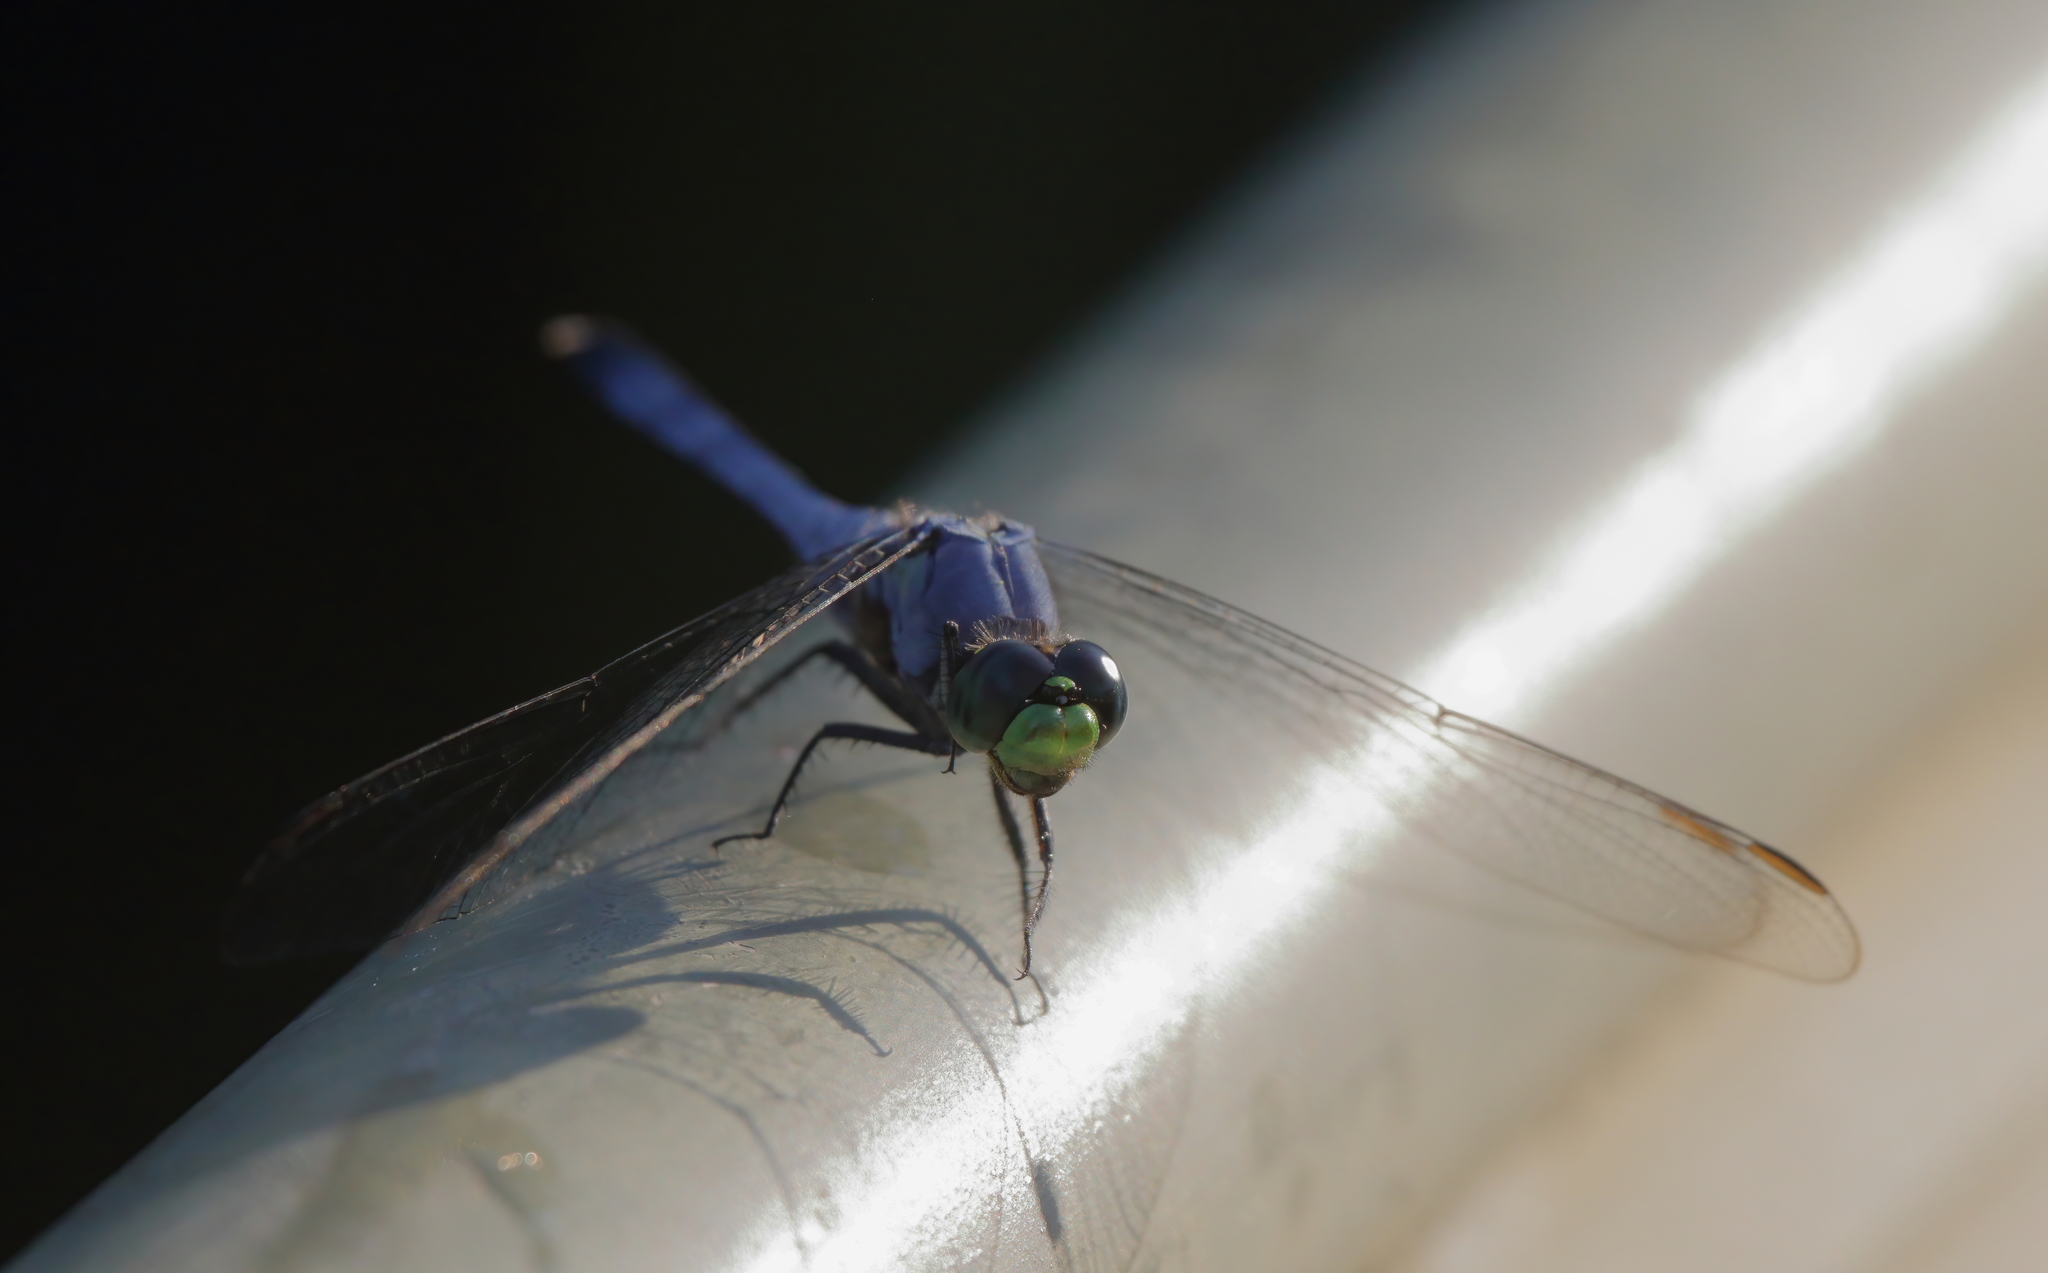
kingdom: Animalia
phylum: Arthropoda
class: Insecta
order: Odonata
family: Libellulidae
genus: Erythemis
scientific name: Erythemis simplicicollis
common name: Eastern pondhawk
